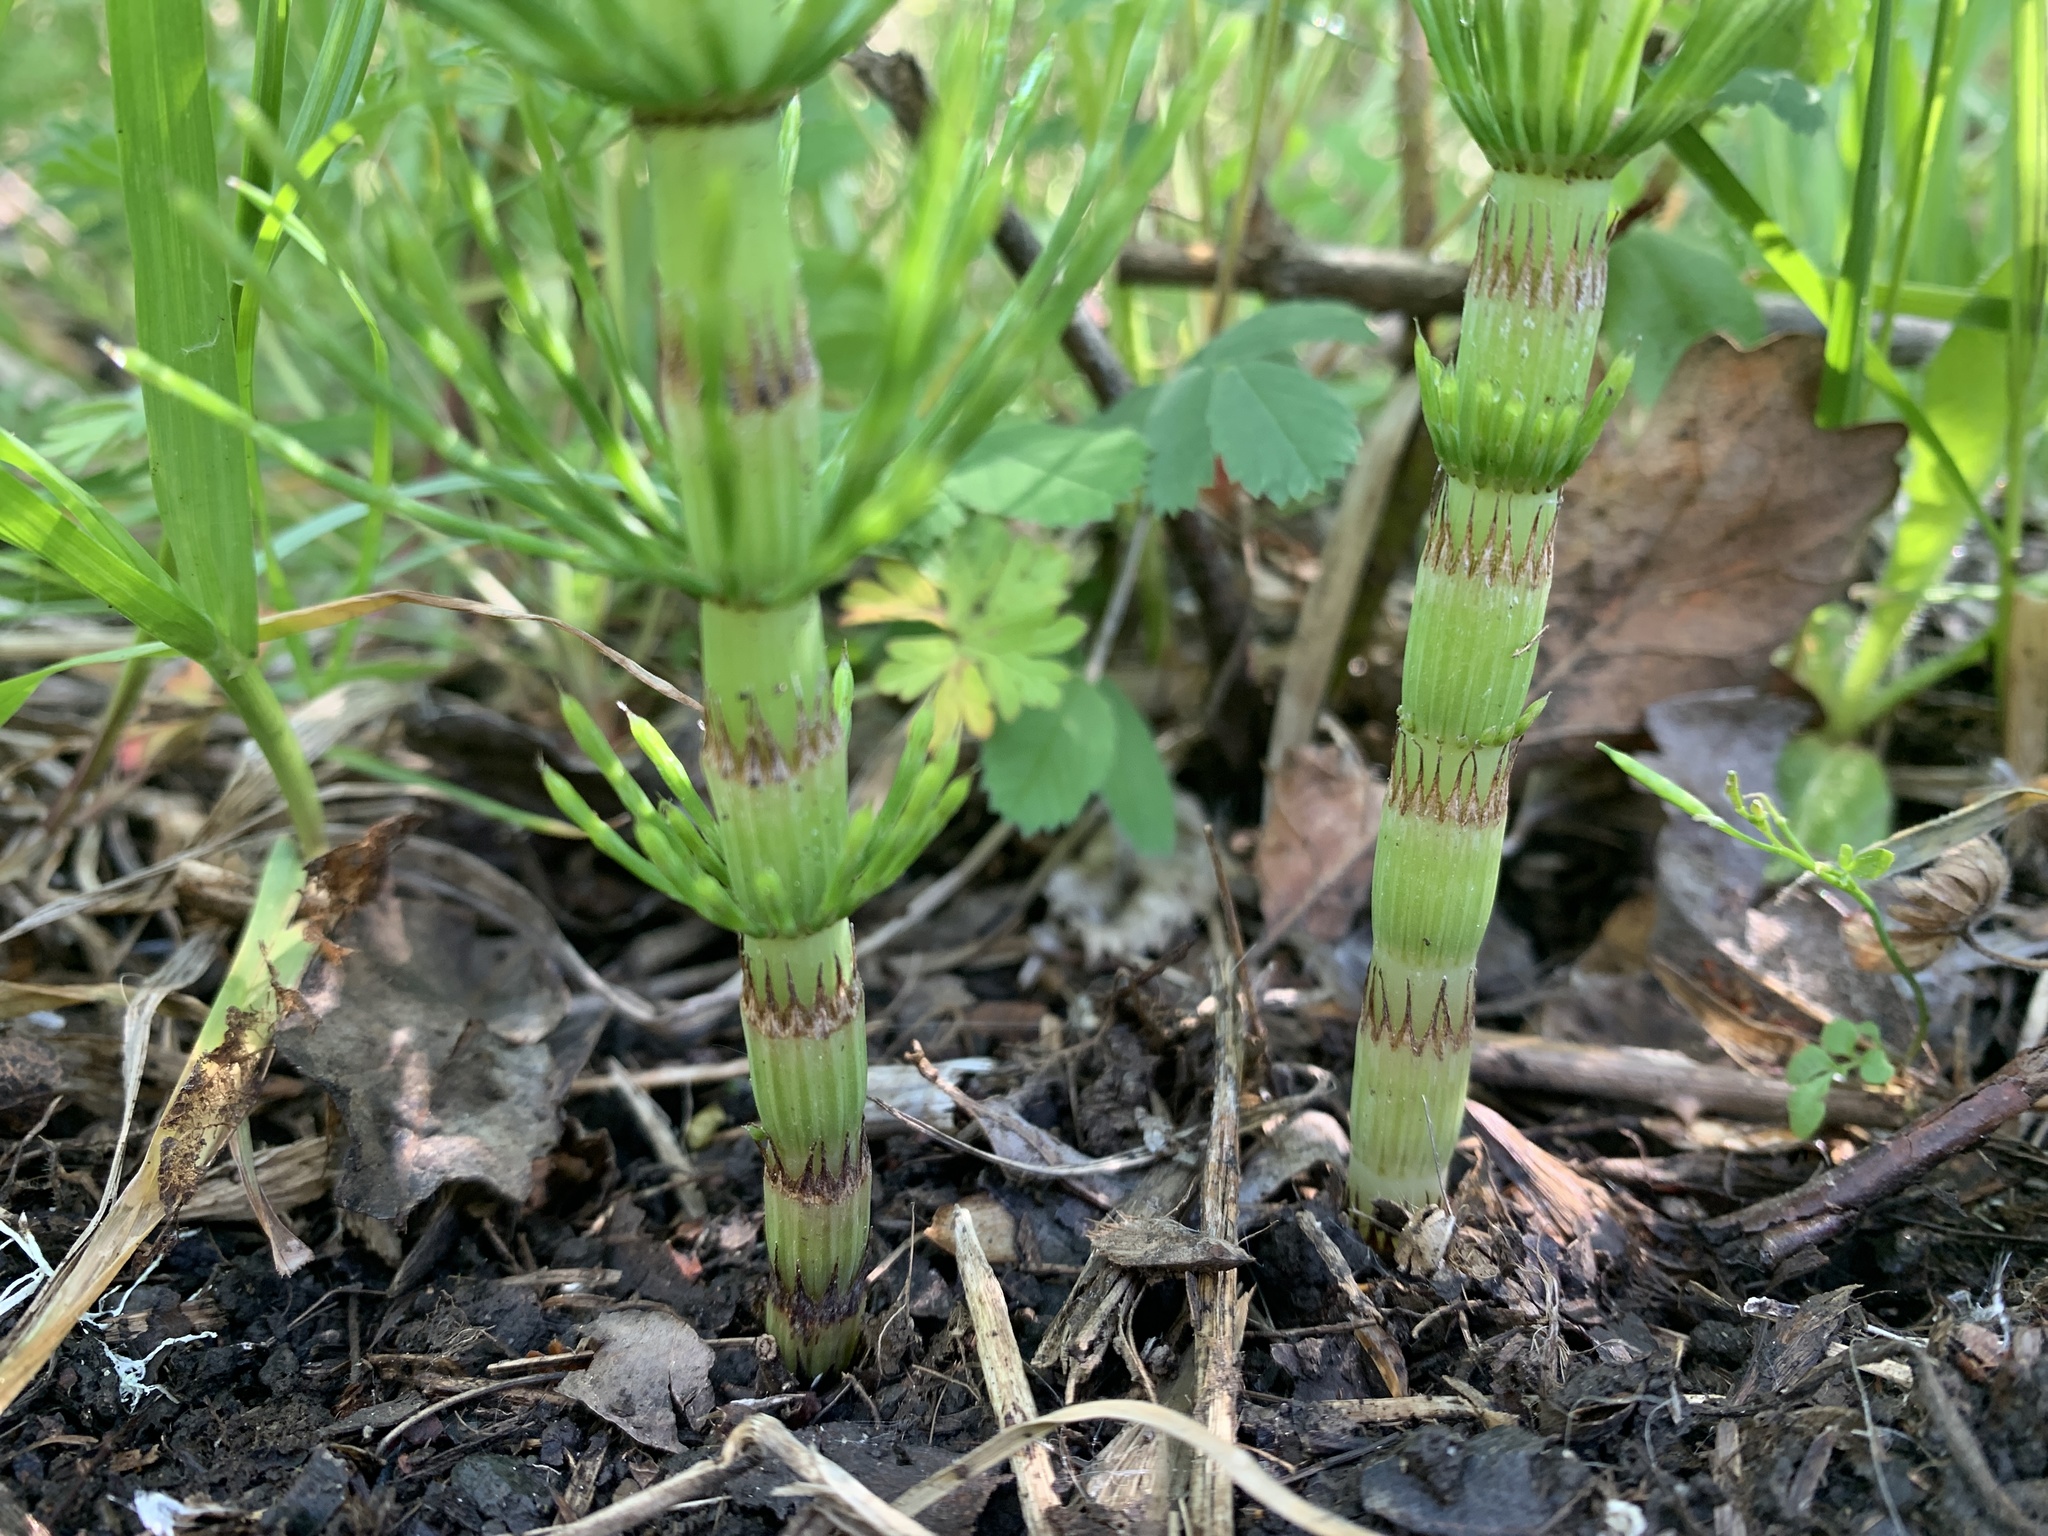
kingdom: Plantae
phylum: Tracheophyta
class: Polypodiopsida
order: Equisetales
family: Equisetaceae
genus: Equisetum
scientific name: Equisetum telmateia
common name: Great horsetail
